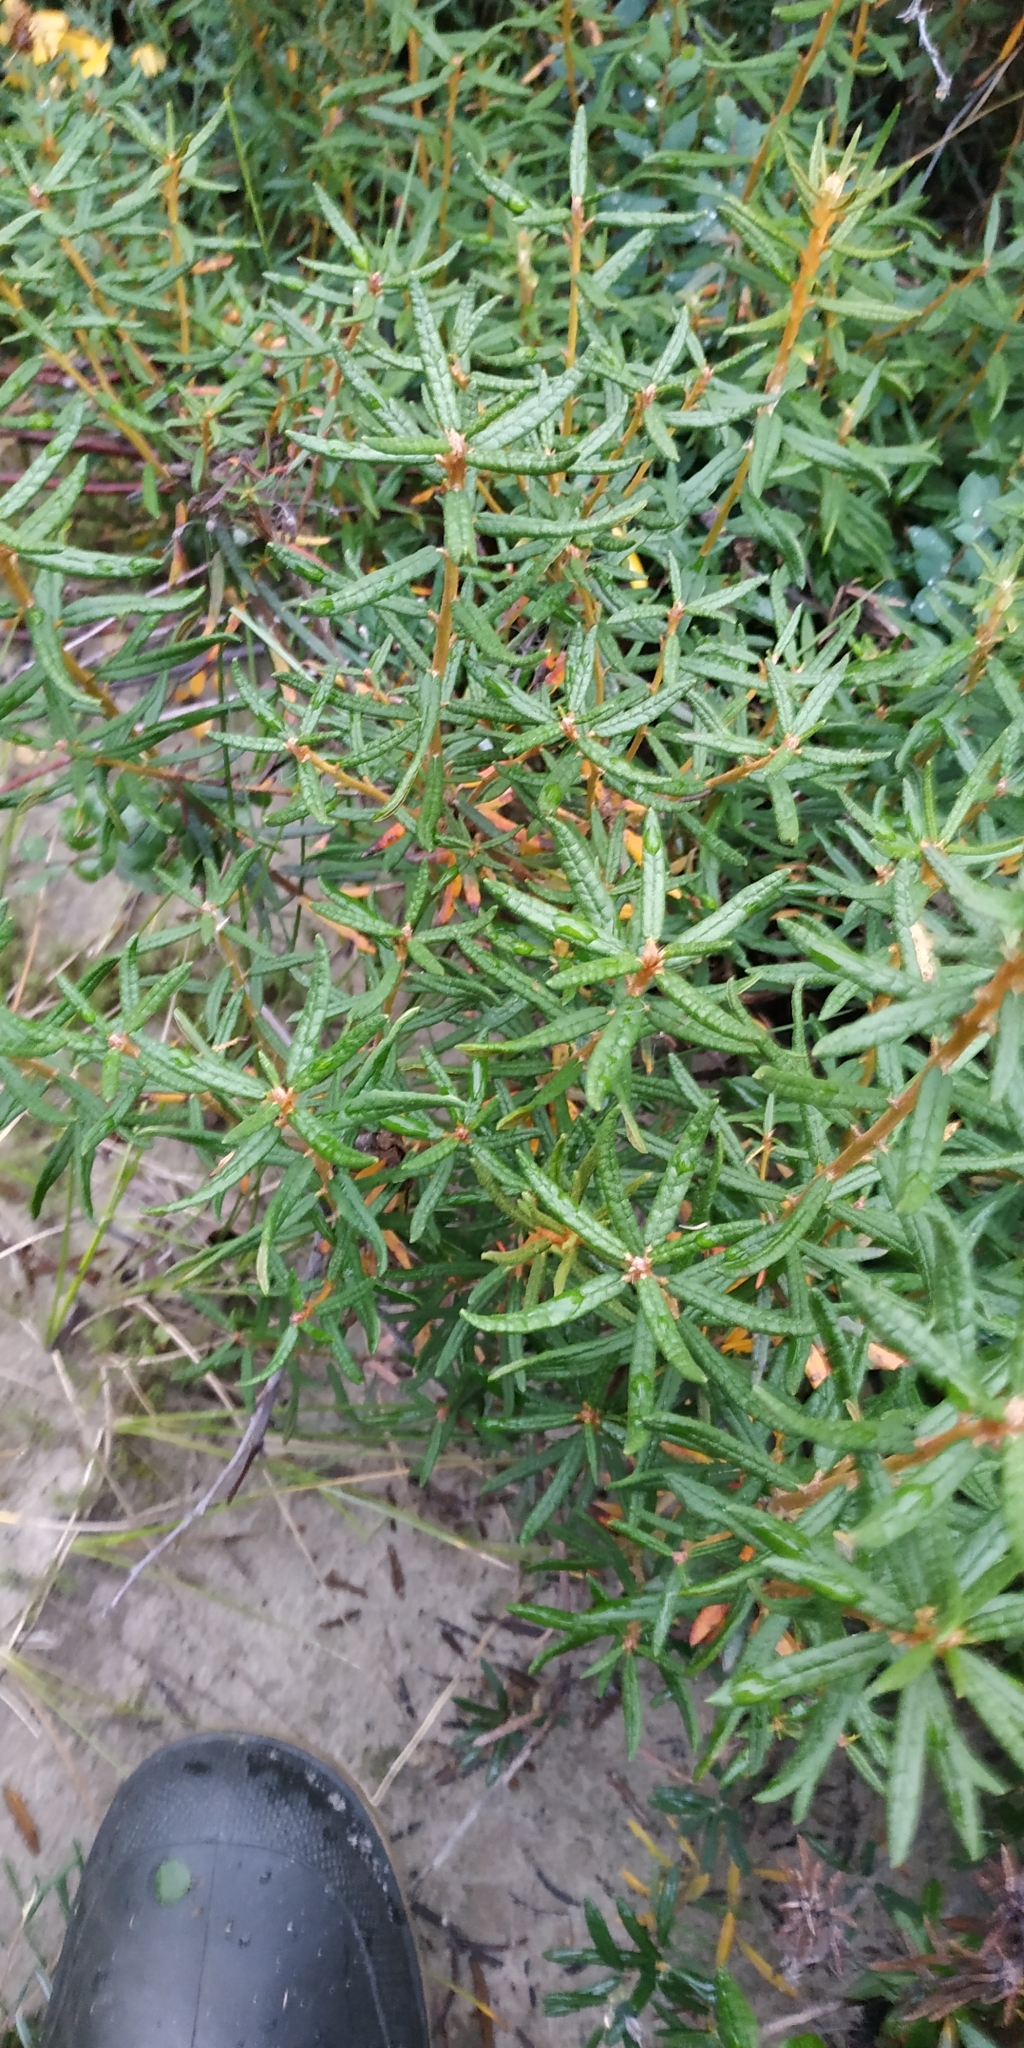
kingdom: Plantae
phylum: Tracheophyta
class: Magnoliopsida
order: Ericales
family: Ericaceae
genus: Rhododendron
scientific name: Rhododendron tomentosum
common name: Marsh labrador tea
